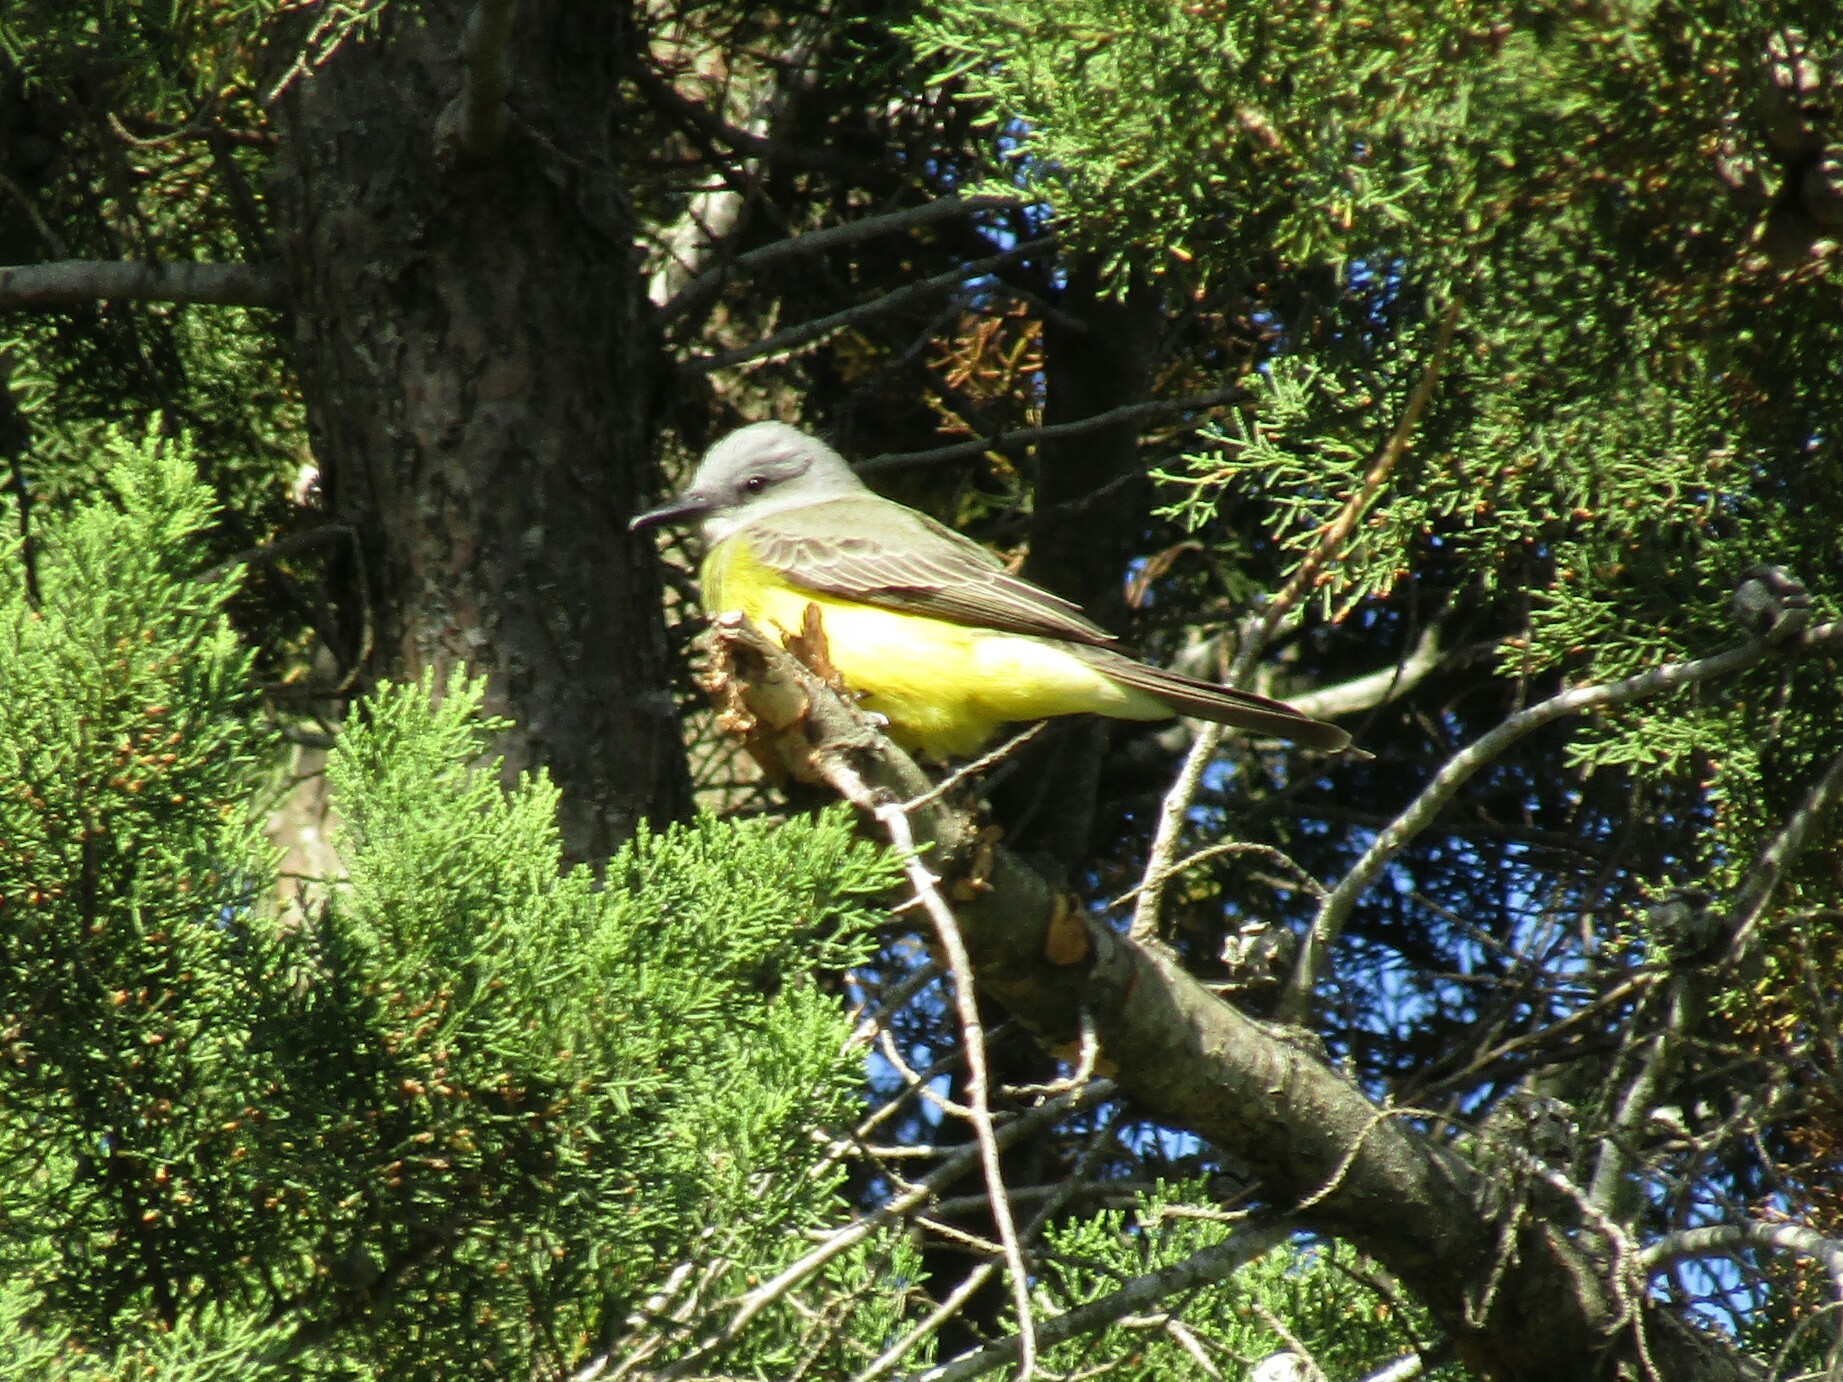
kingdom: Animalia
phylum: Chordata
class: Aves
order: Passeriformes
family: Tyrannidae
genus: Tyrannus
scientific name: Tyrannus melancholicus
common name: Tropical kingbird
